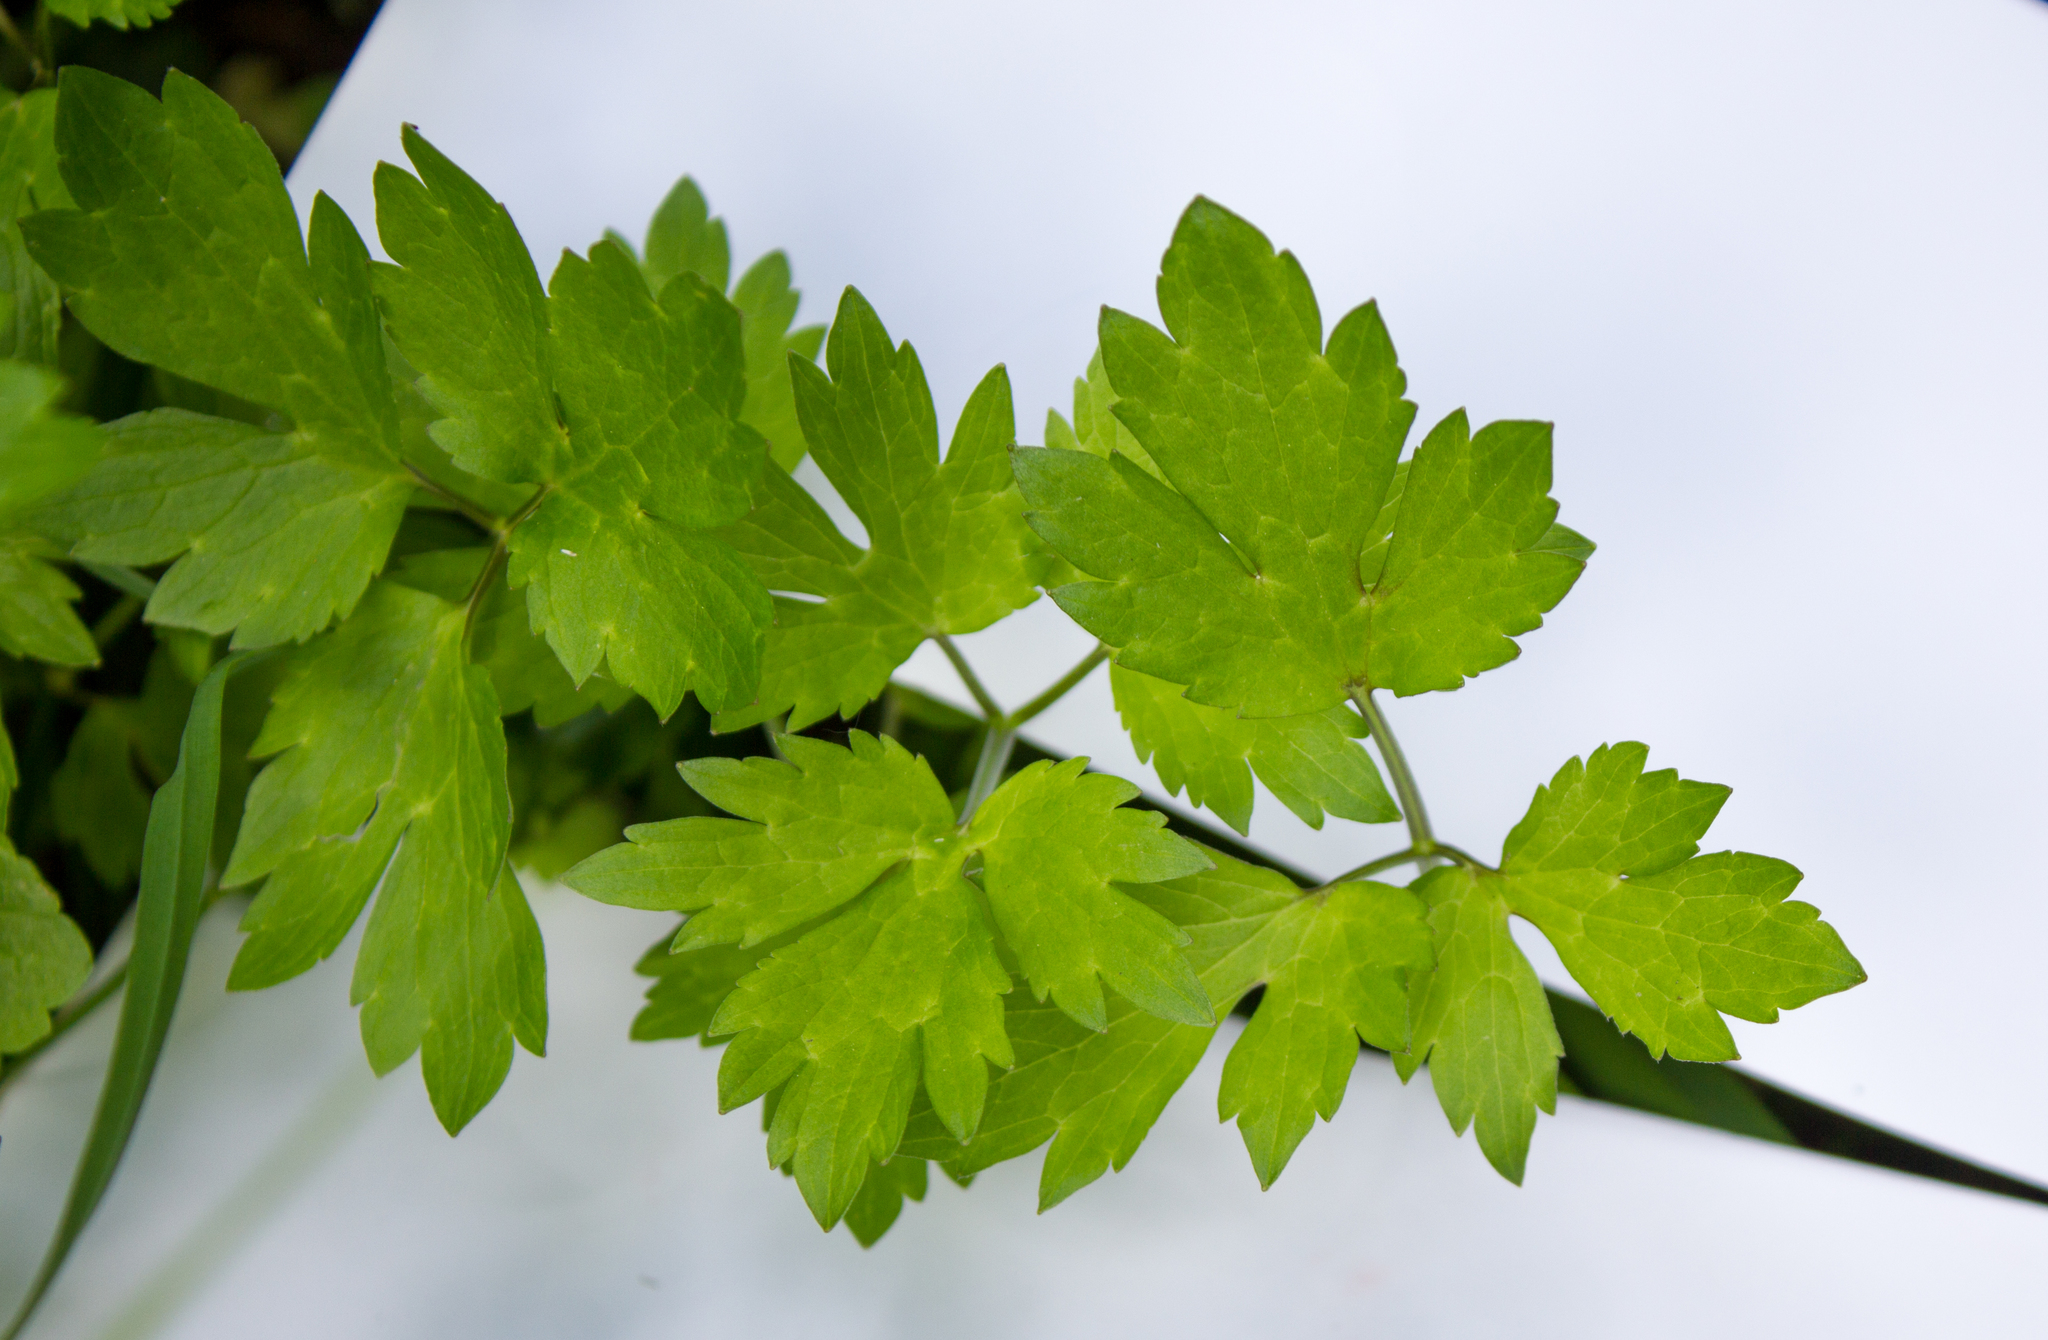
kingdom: Plantae
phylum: Tracheophyta
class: Magnoliopsida
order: Ranunculales
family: Ranunculaceae
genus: Ranunculus
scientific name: Ranunculus repens
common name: Creeping buttercup
